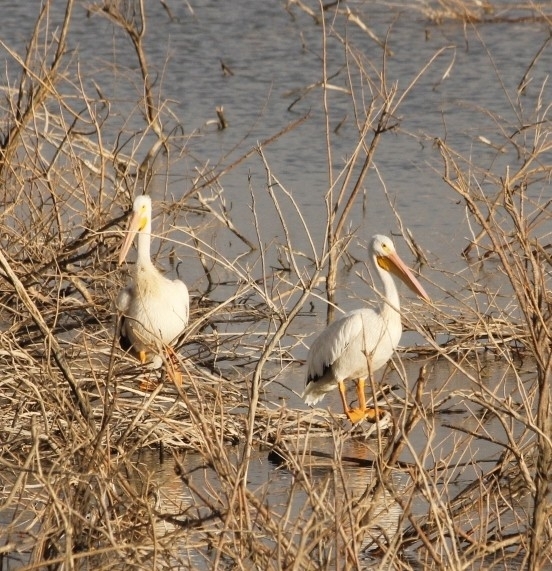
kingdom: Animalia
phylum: Chordata
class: Aves
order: Pelecaniformes
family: Pelecanidae
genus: Pelecanus
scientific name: Pelecanus erythrorhynchos
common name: American white pelican
